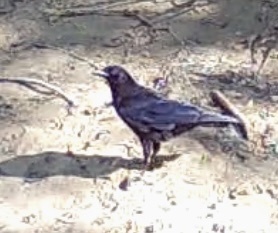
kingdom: Animalia
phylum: Chordata
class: Aves
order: Passeriformes
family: Corvidae
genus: Corvus
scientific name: Corvus brachyrhynchos
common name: American crow
